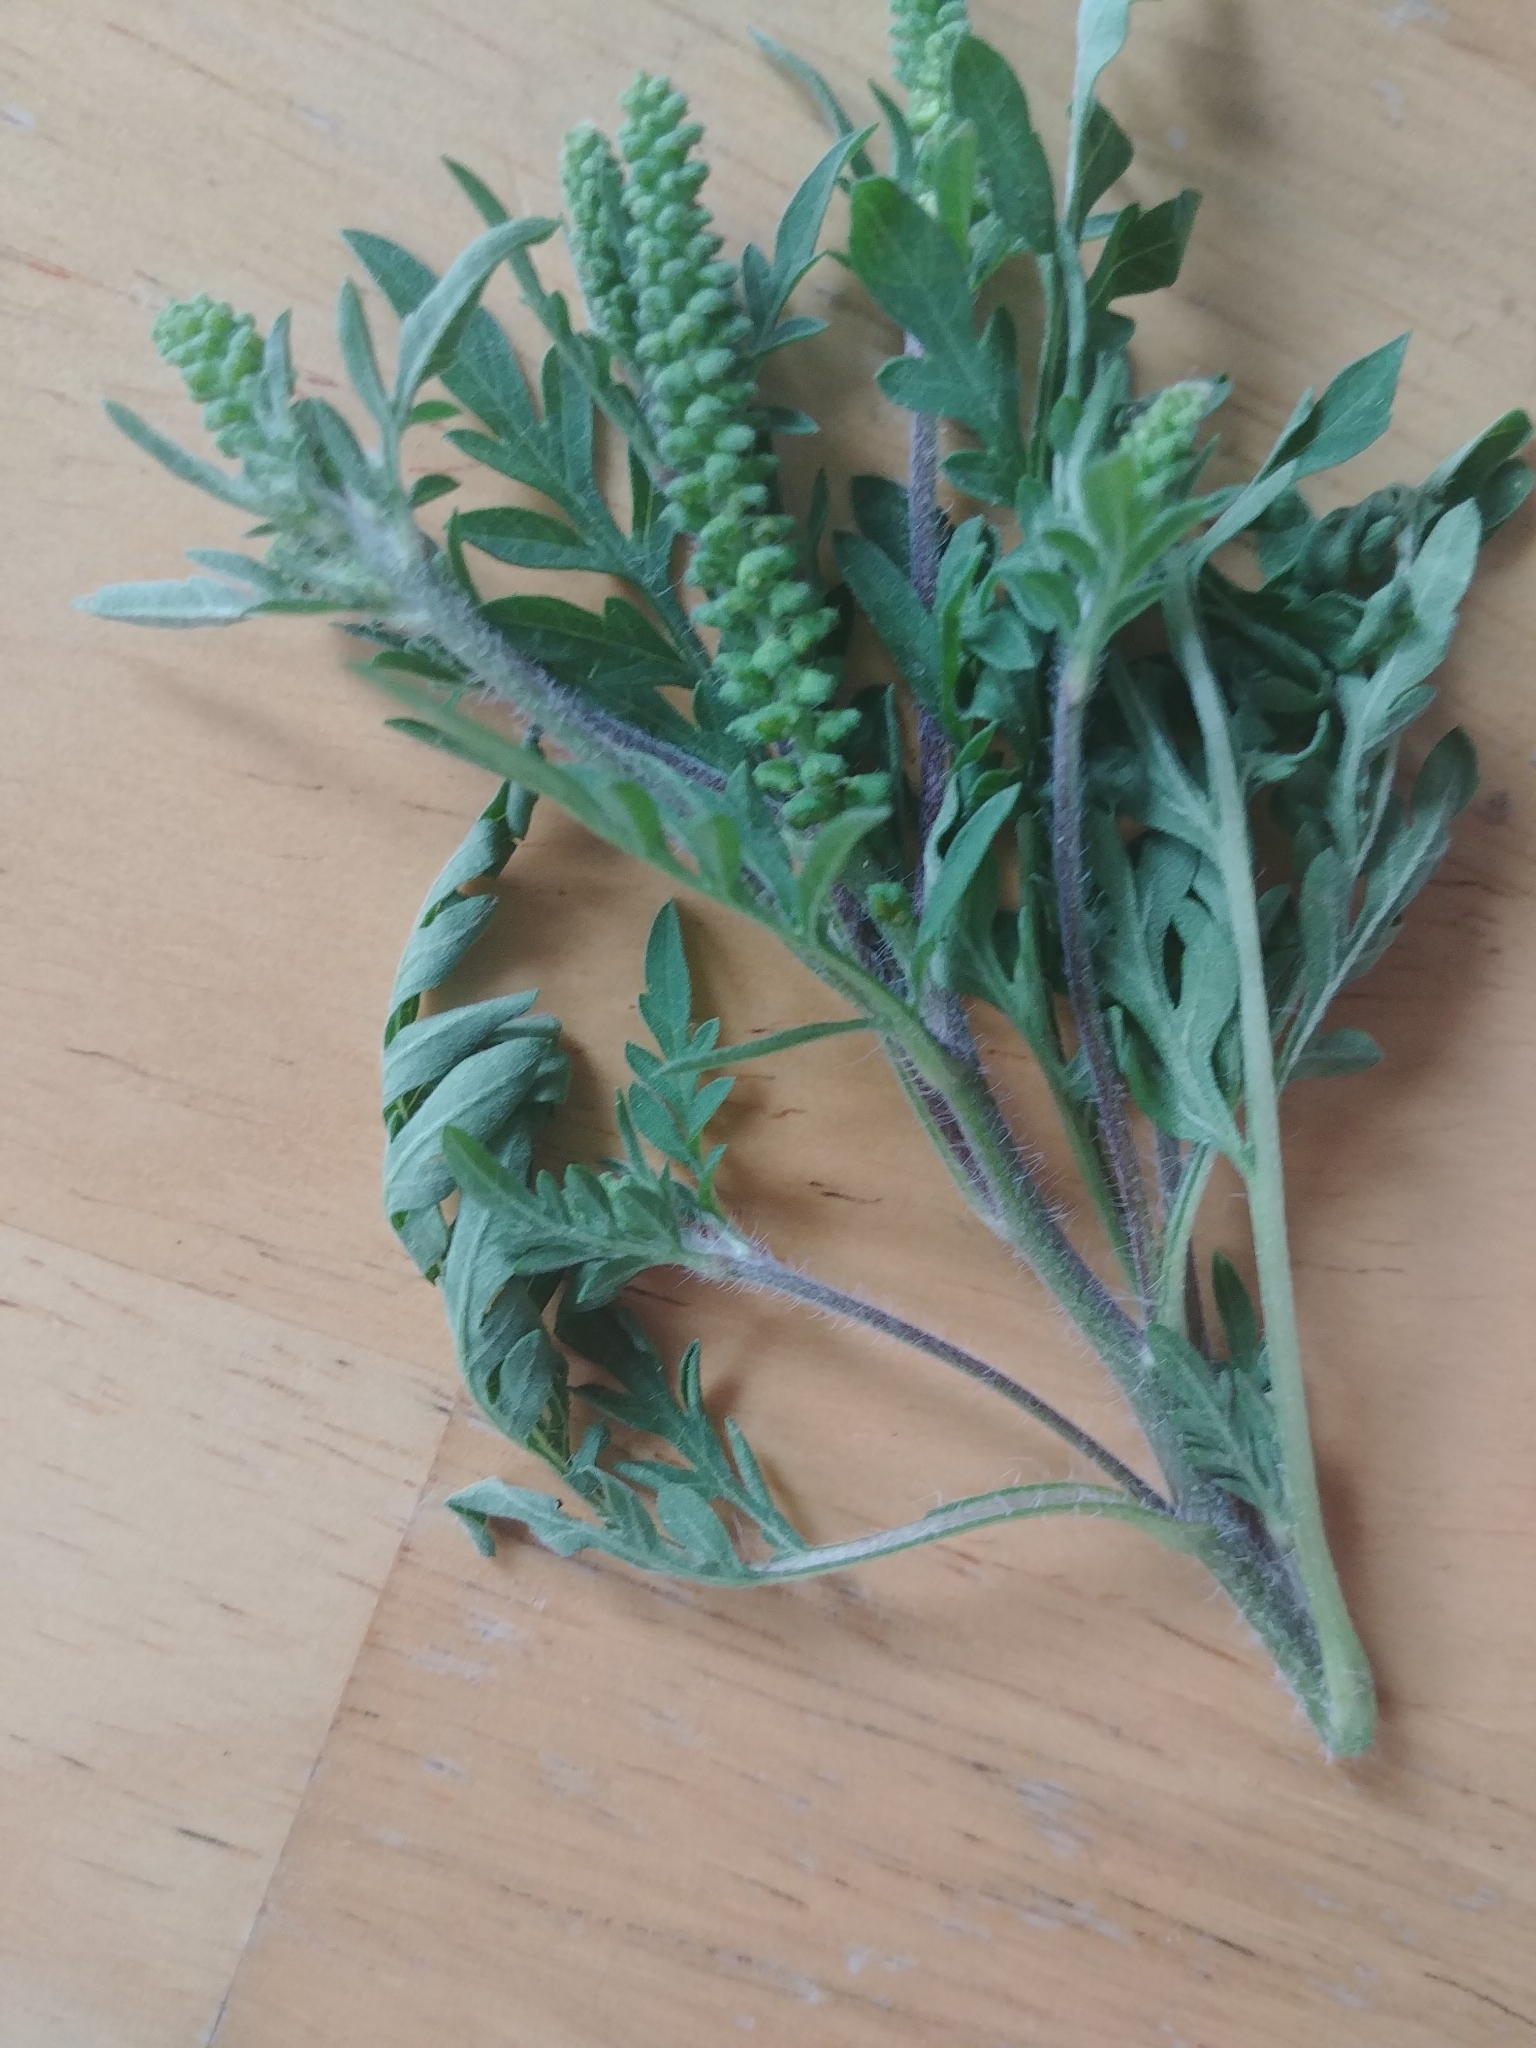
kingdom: Plantae
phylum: Tracheophyta
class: Magnoliopsida
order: Asterales
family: Asteraceae
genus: Ambrosia
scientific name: Ambrosia artemisiifolia
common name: Annual ragweed
